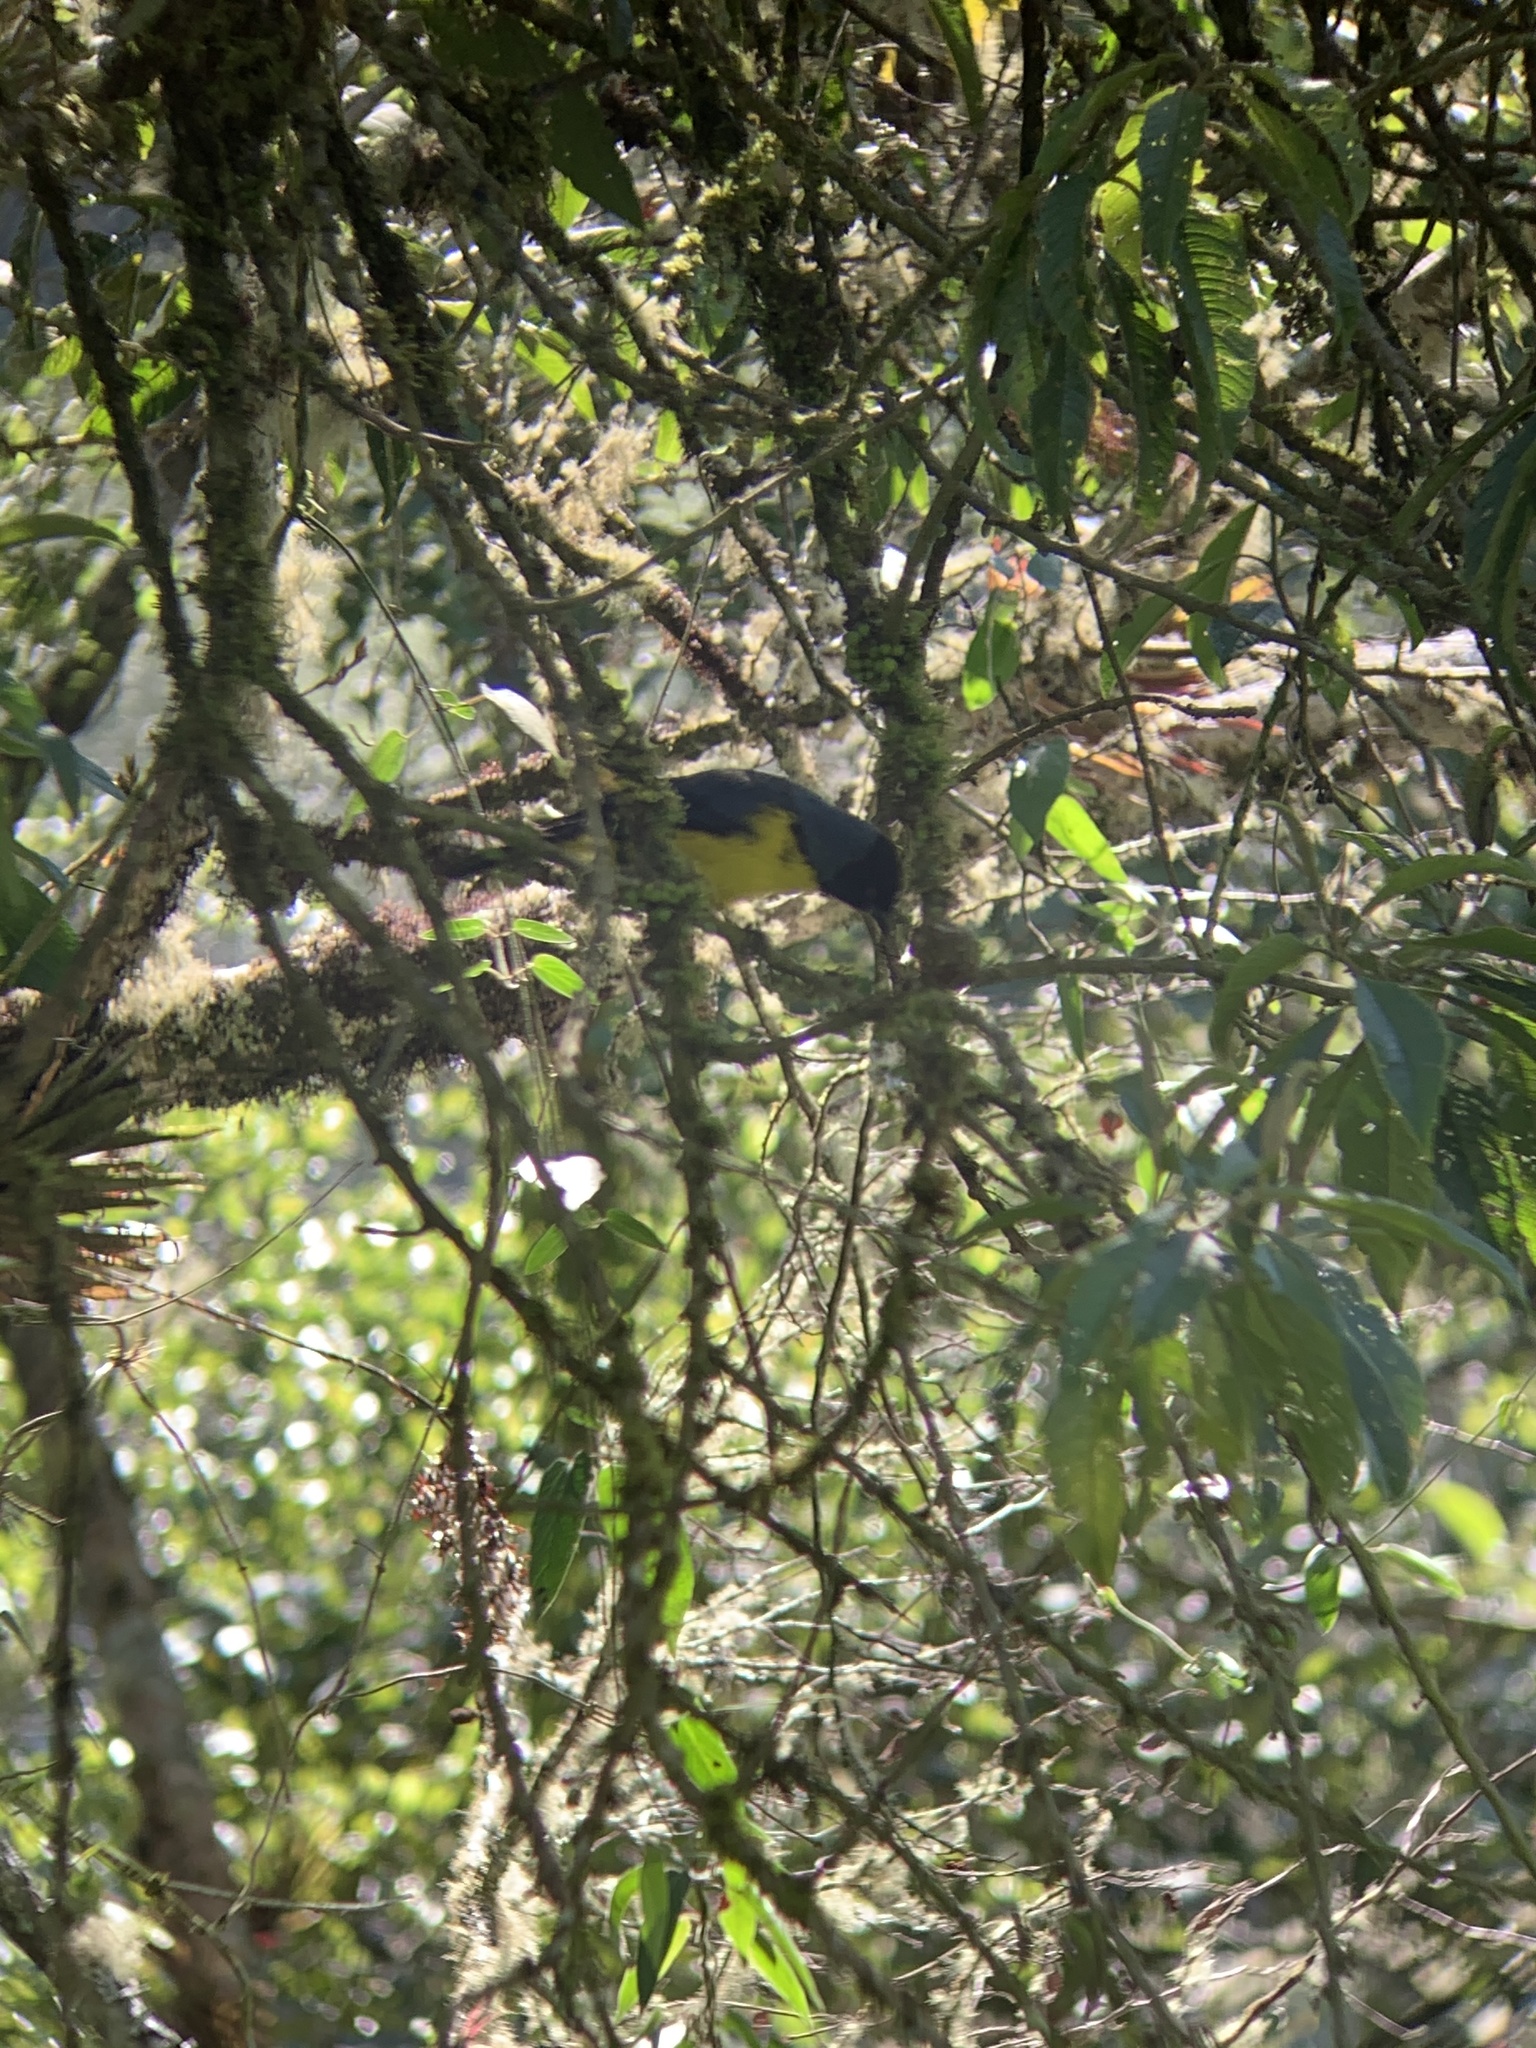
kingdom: Animalia
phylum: Chordata
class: Aves
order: Passeriformes
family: Thraupidae
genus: Buthraupis
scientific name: Buthraupis montana
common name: Hooded mountain tanager
